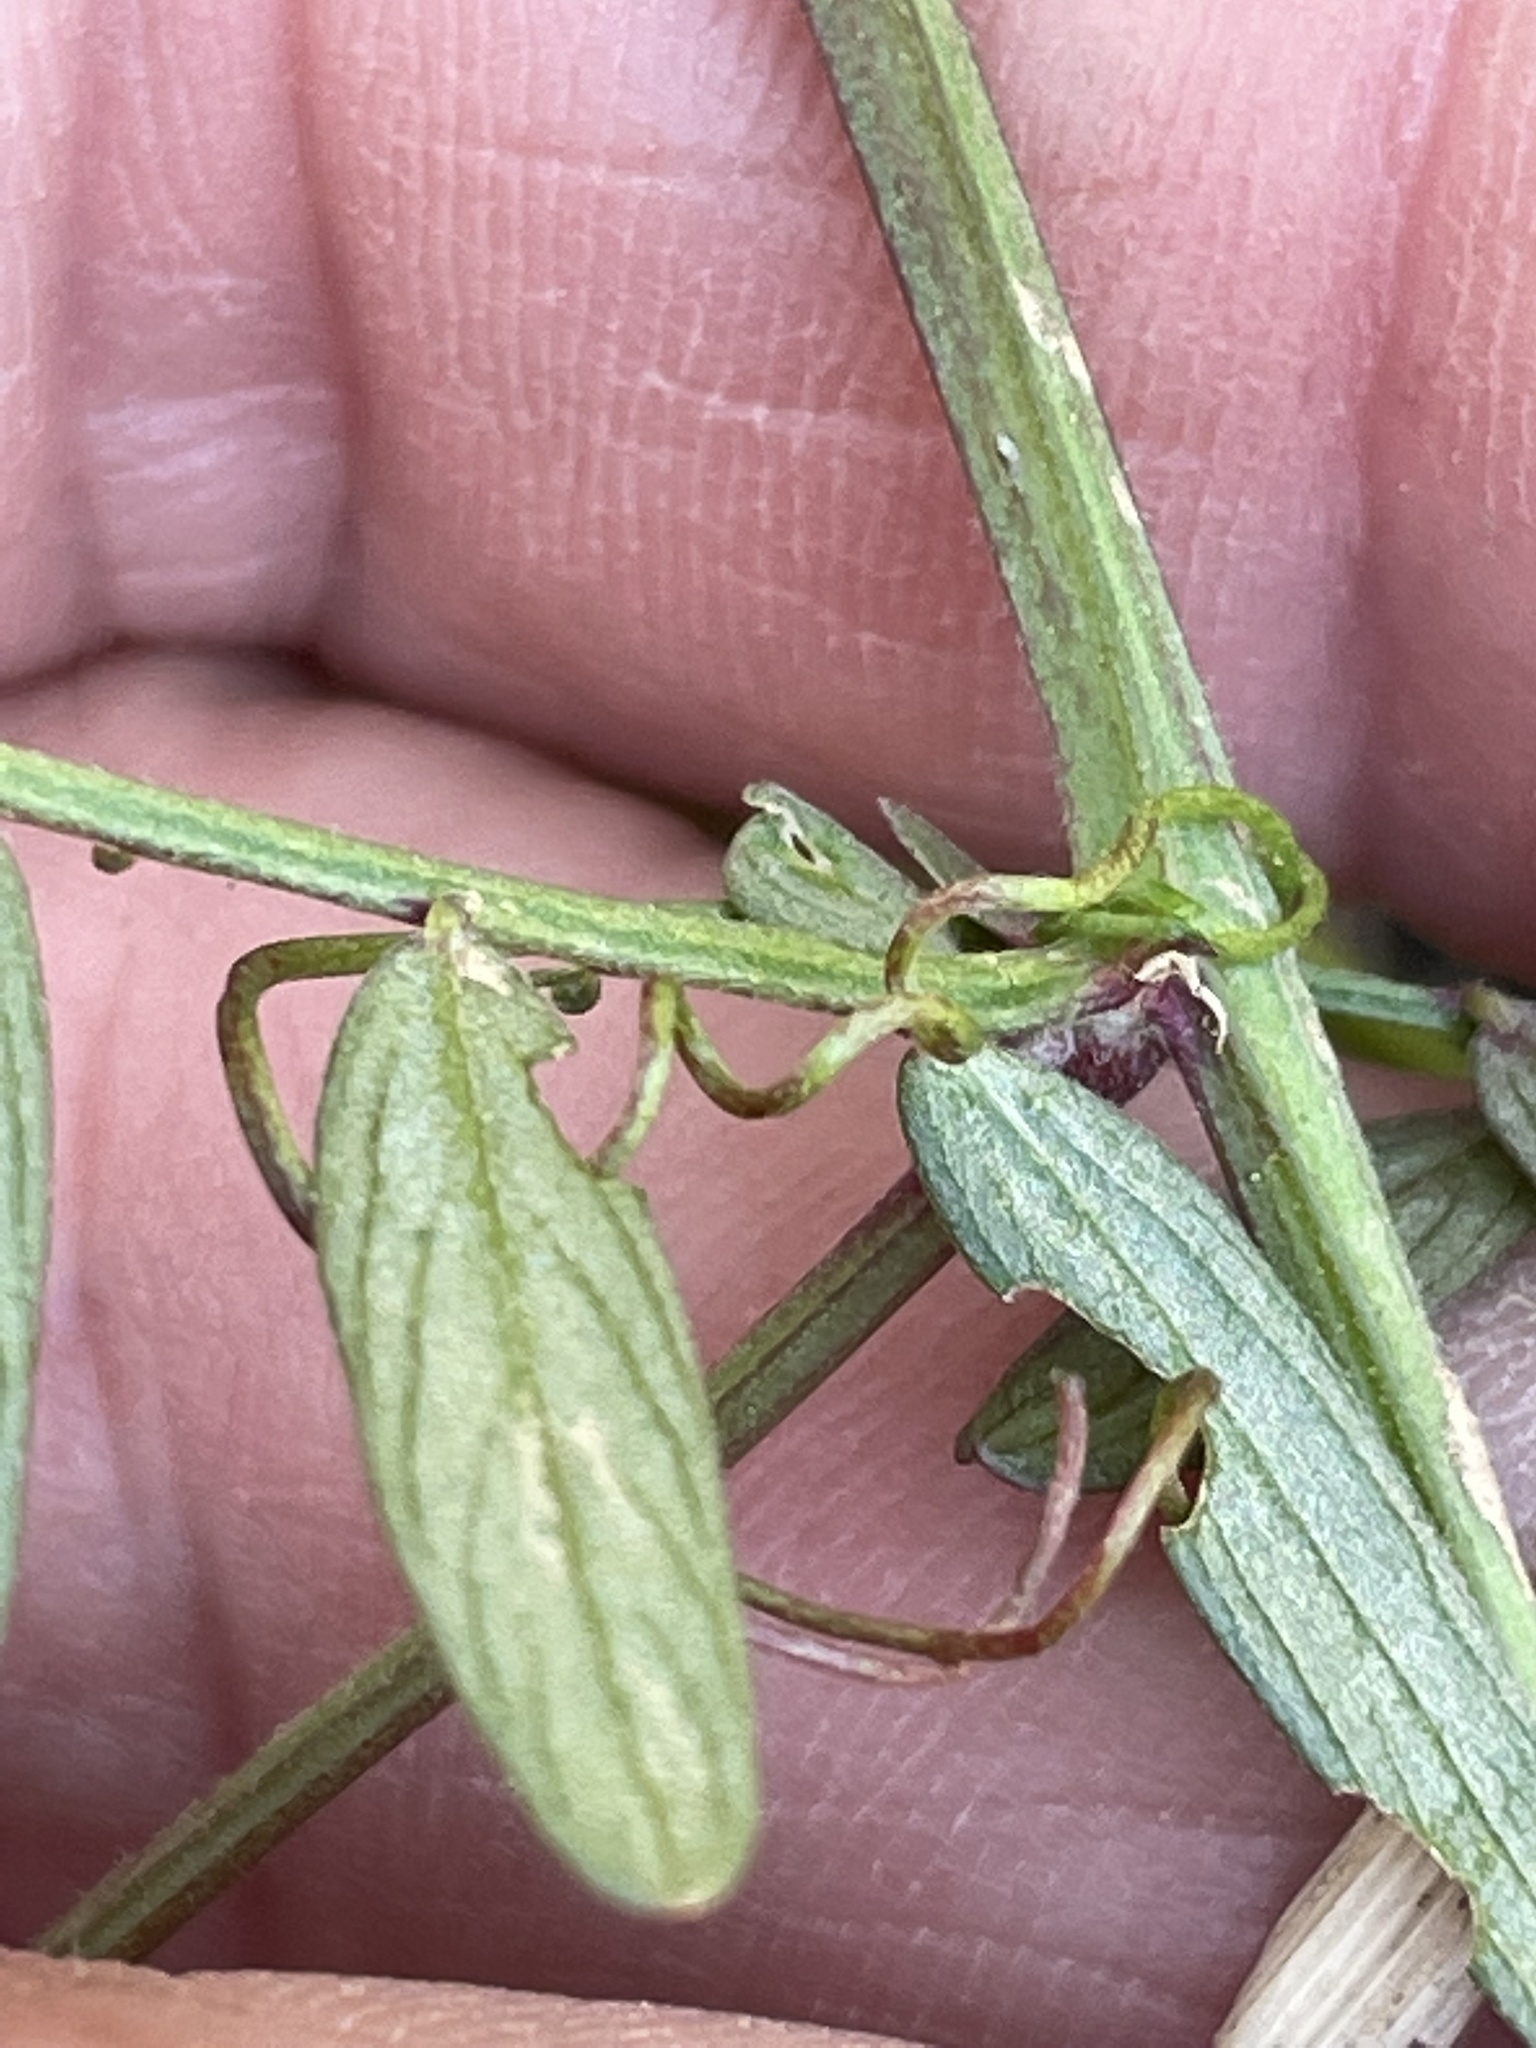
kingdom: Plantae
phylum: Tracheophyta
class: Magnoliopsida
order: Fabales
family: Fabaceae
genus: Vicia
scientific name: Vicia caroliniana
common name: Carolina vetch
